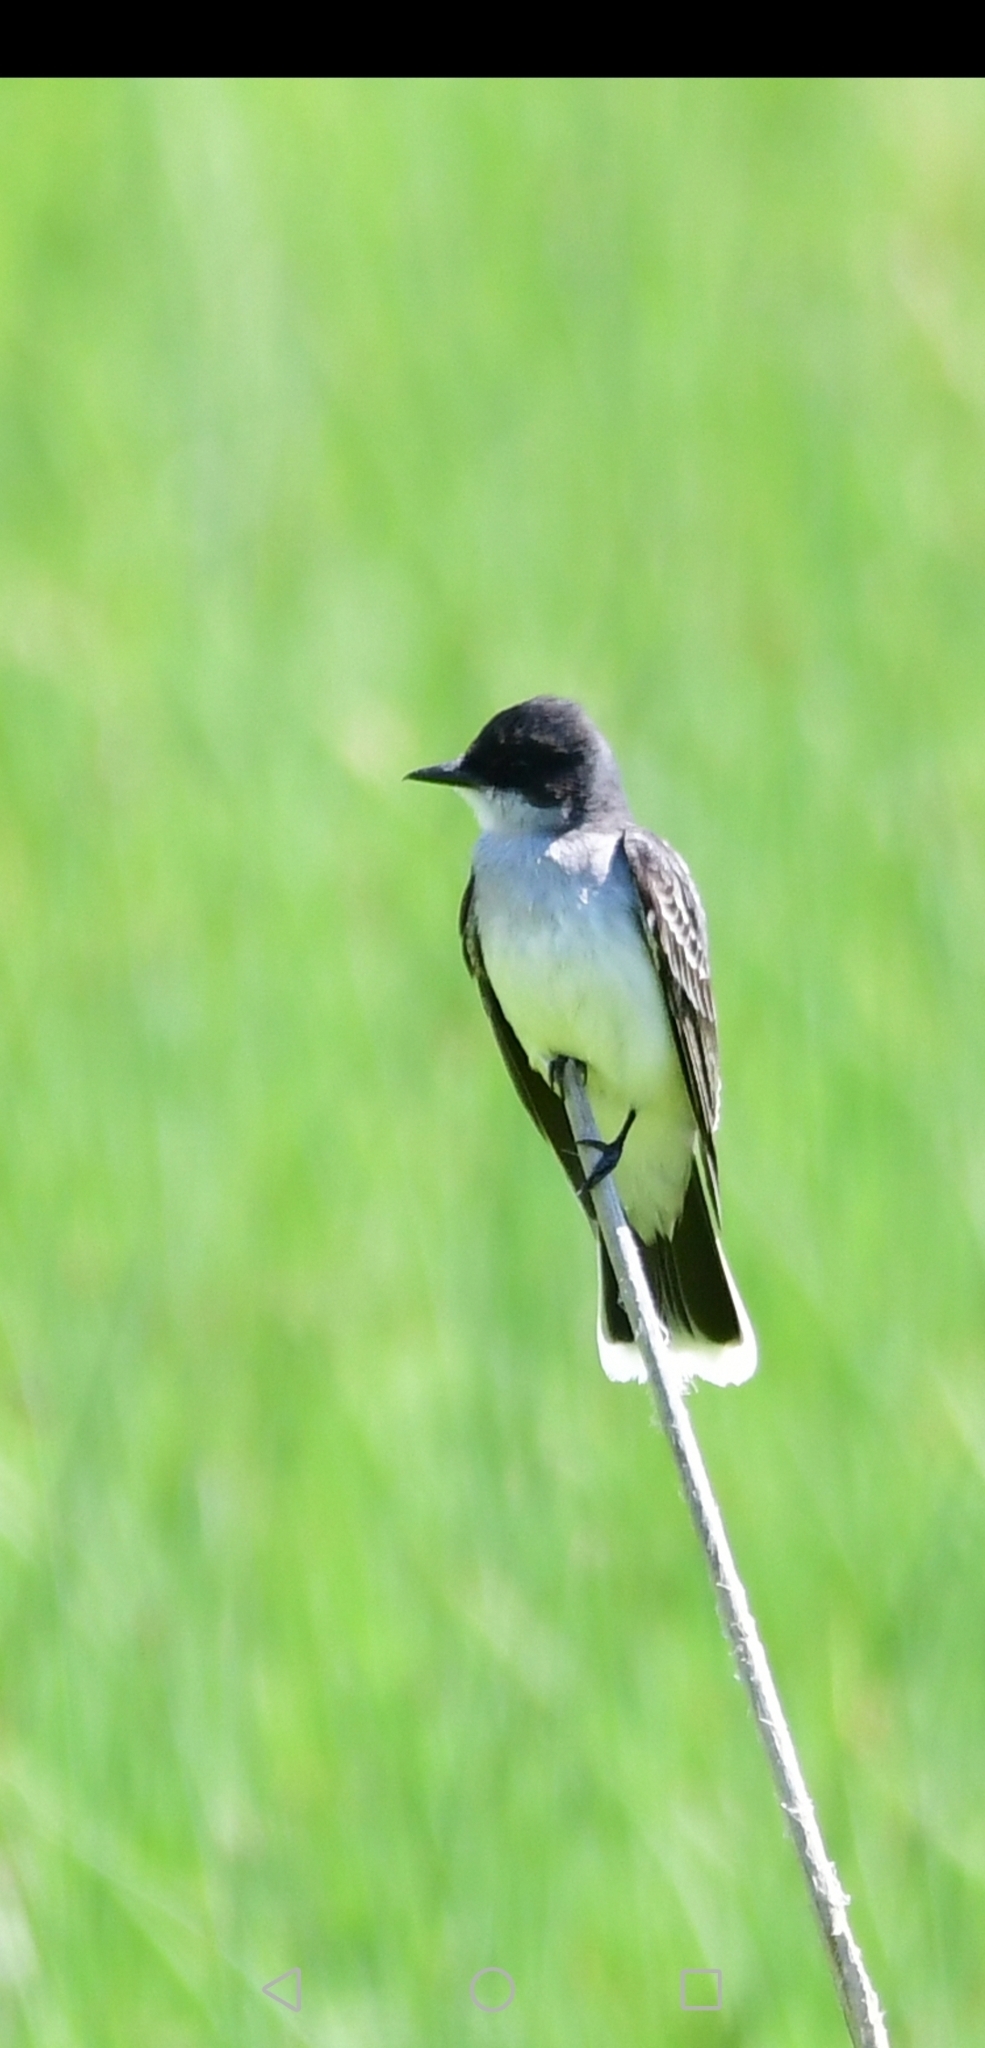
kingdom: Animalia
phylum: Chordata
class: Aves
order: Passeriformes
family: Tyrannidae
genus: Tyrannus
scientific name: Tyrannus tyrannus
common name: Eastern kingbird
